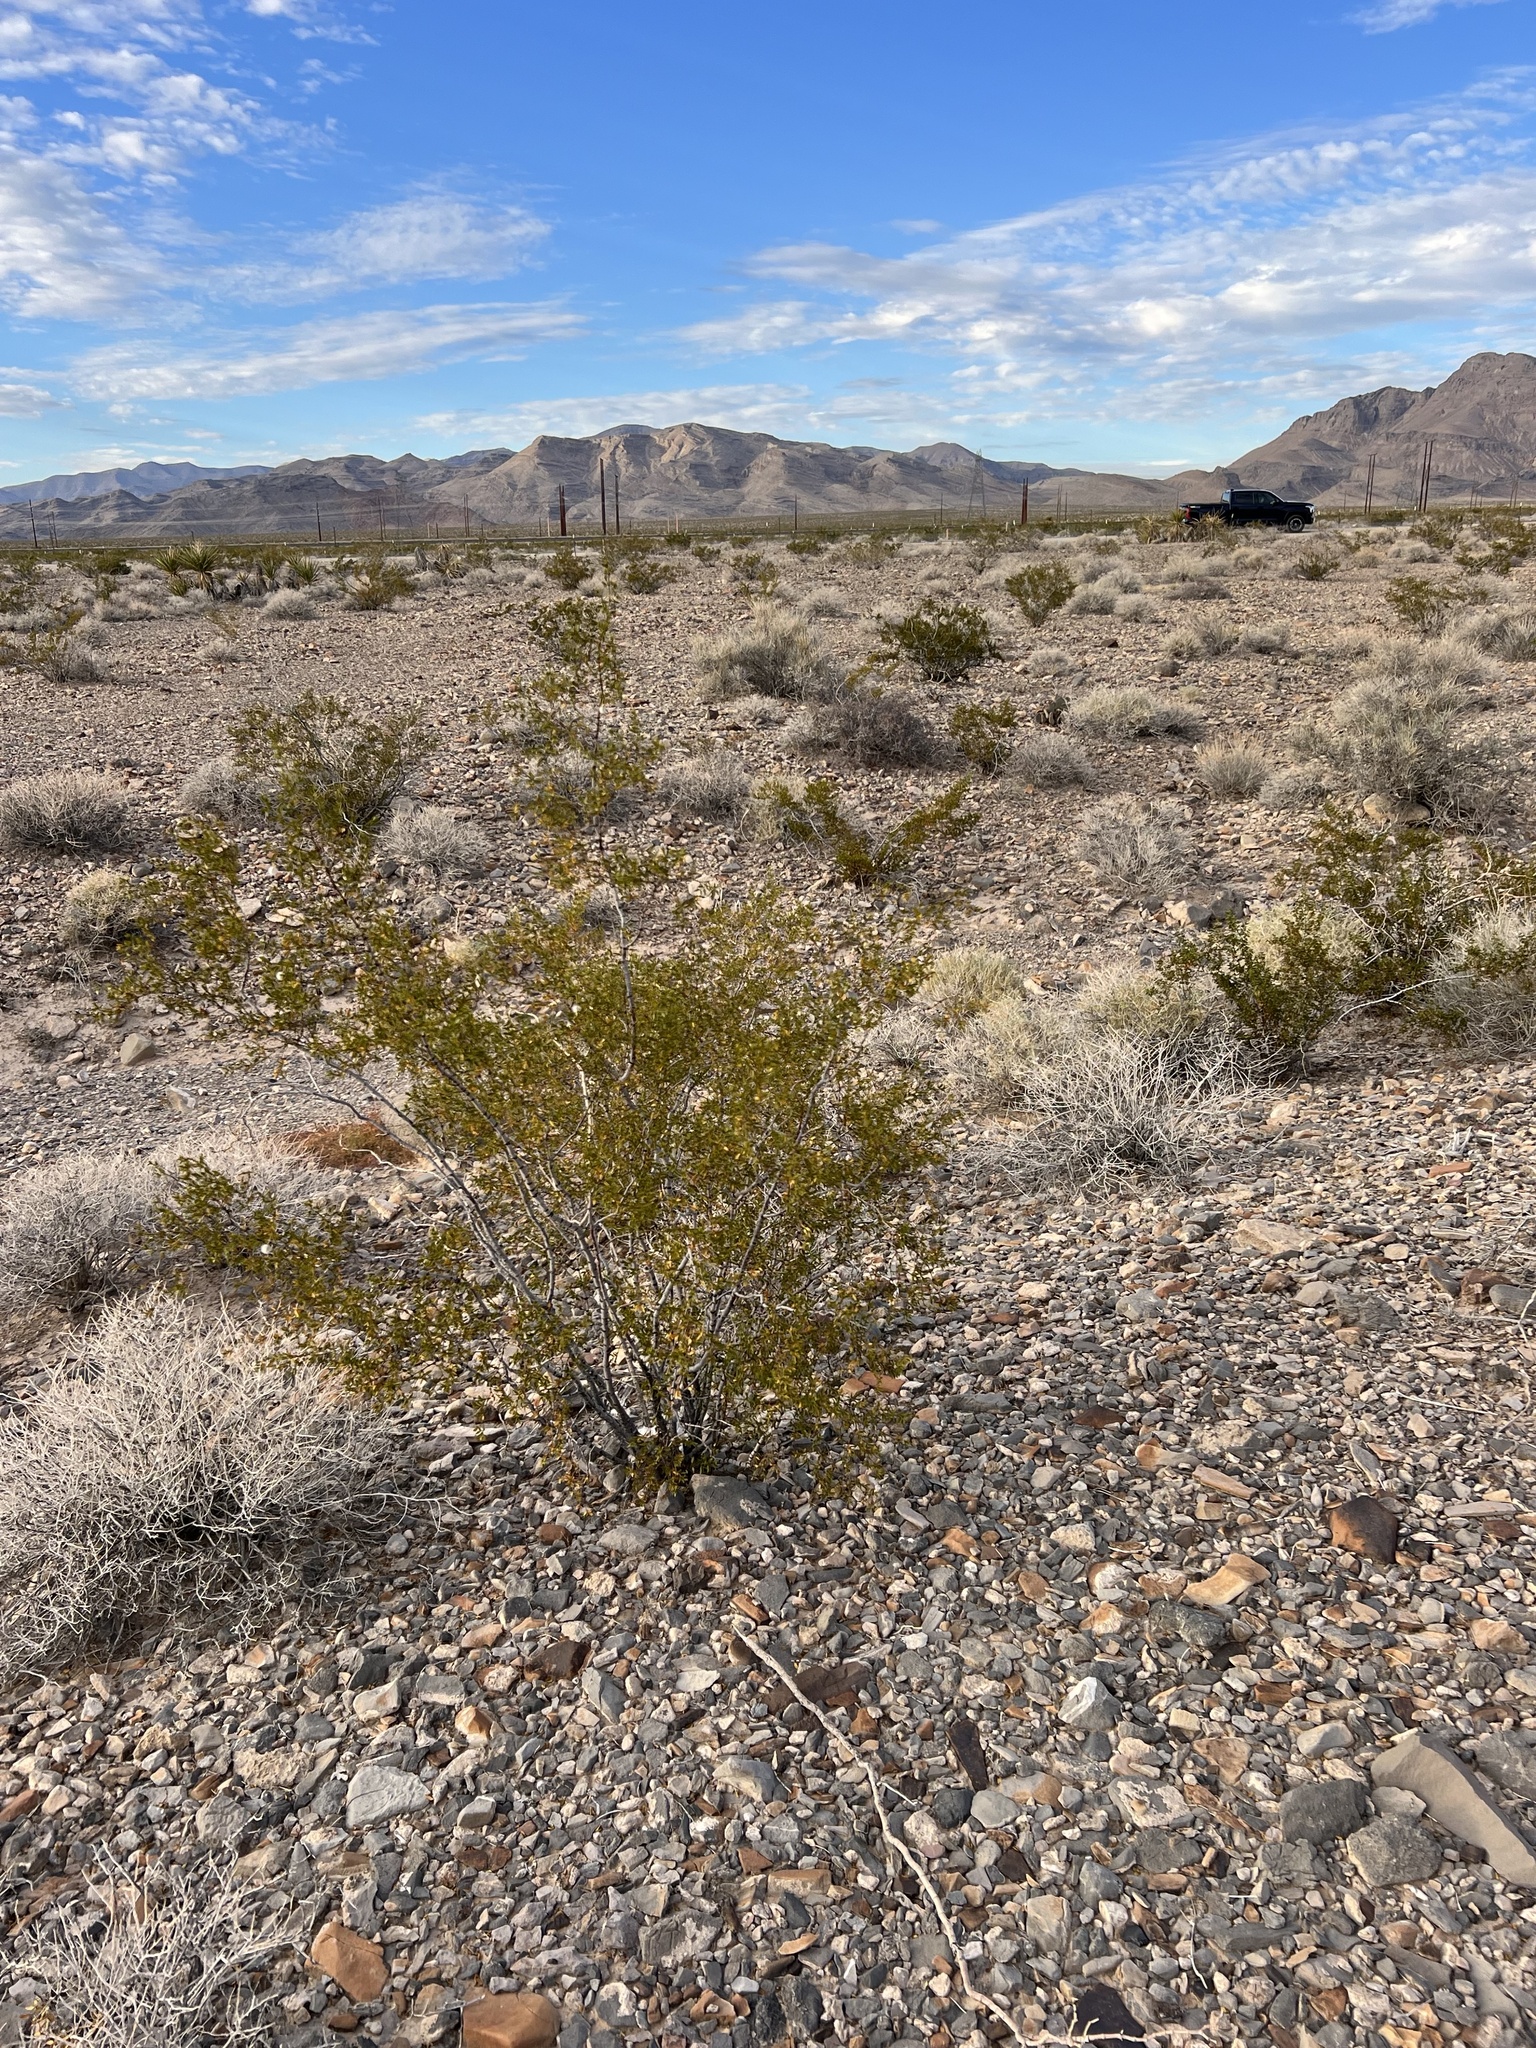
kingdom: Plantae
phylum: Tracheophyta
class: Magnoliopsida
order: Zygophyllales
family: Zygophyllaceae
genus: Larrea
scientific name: Larrea tridentata
